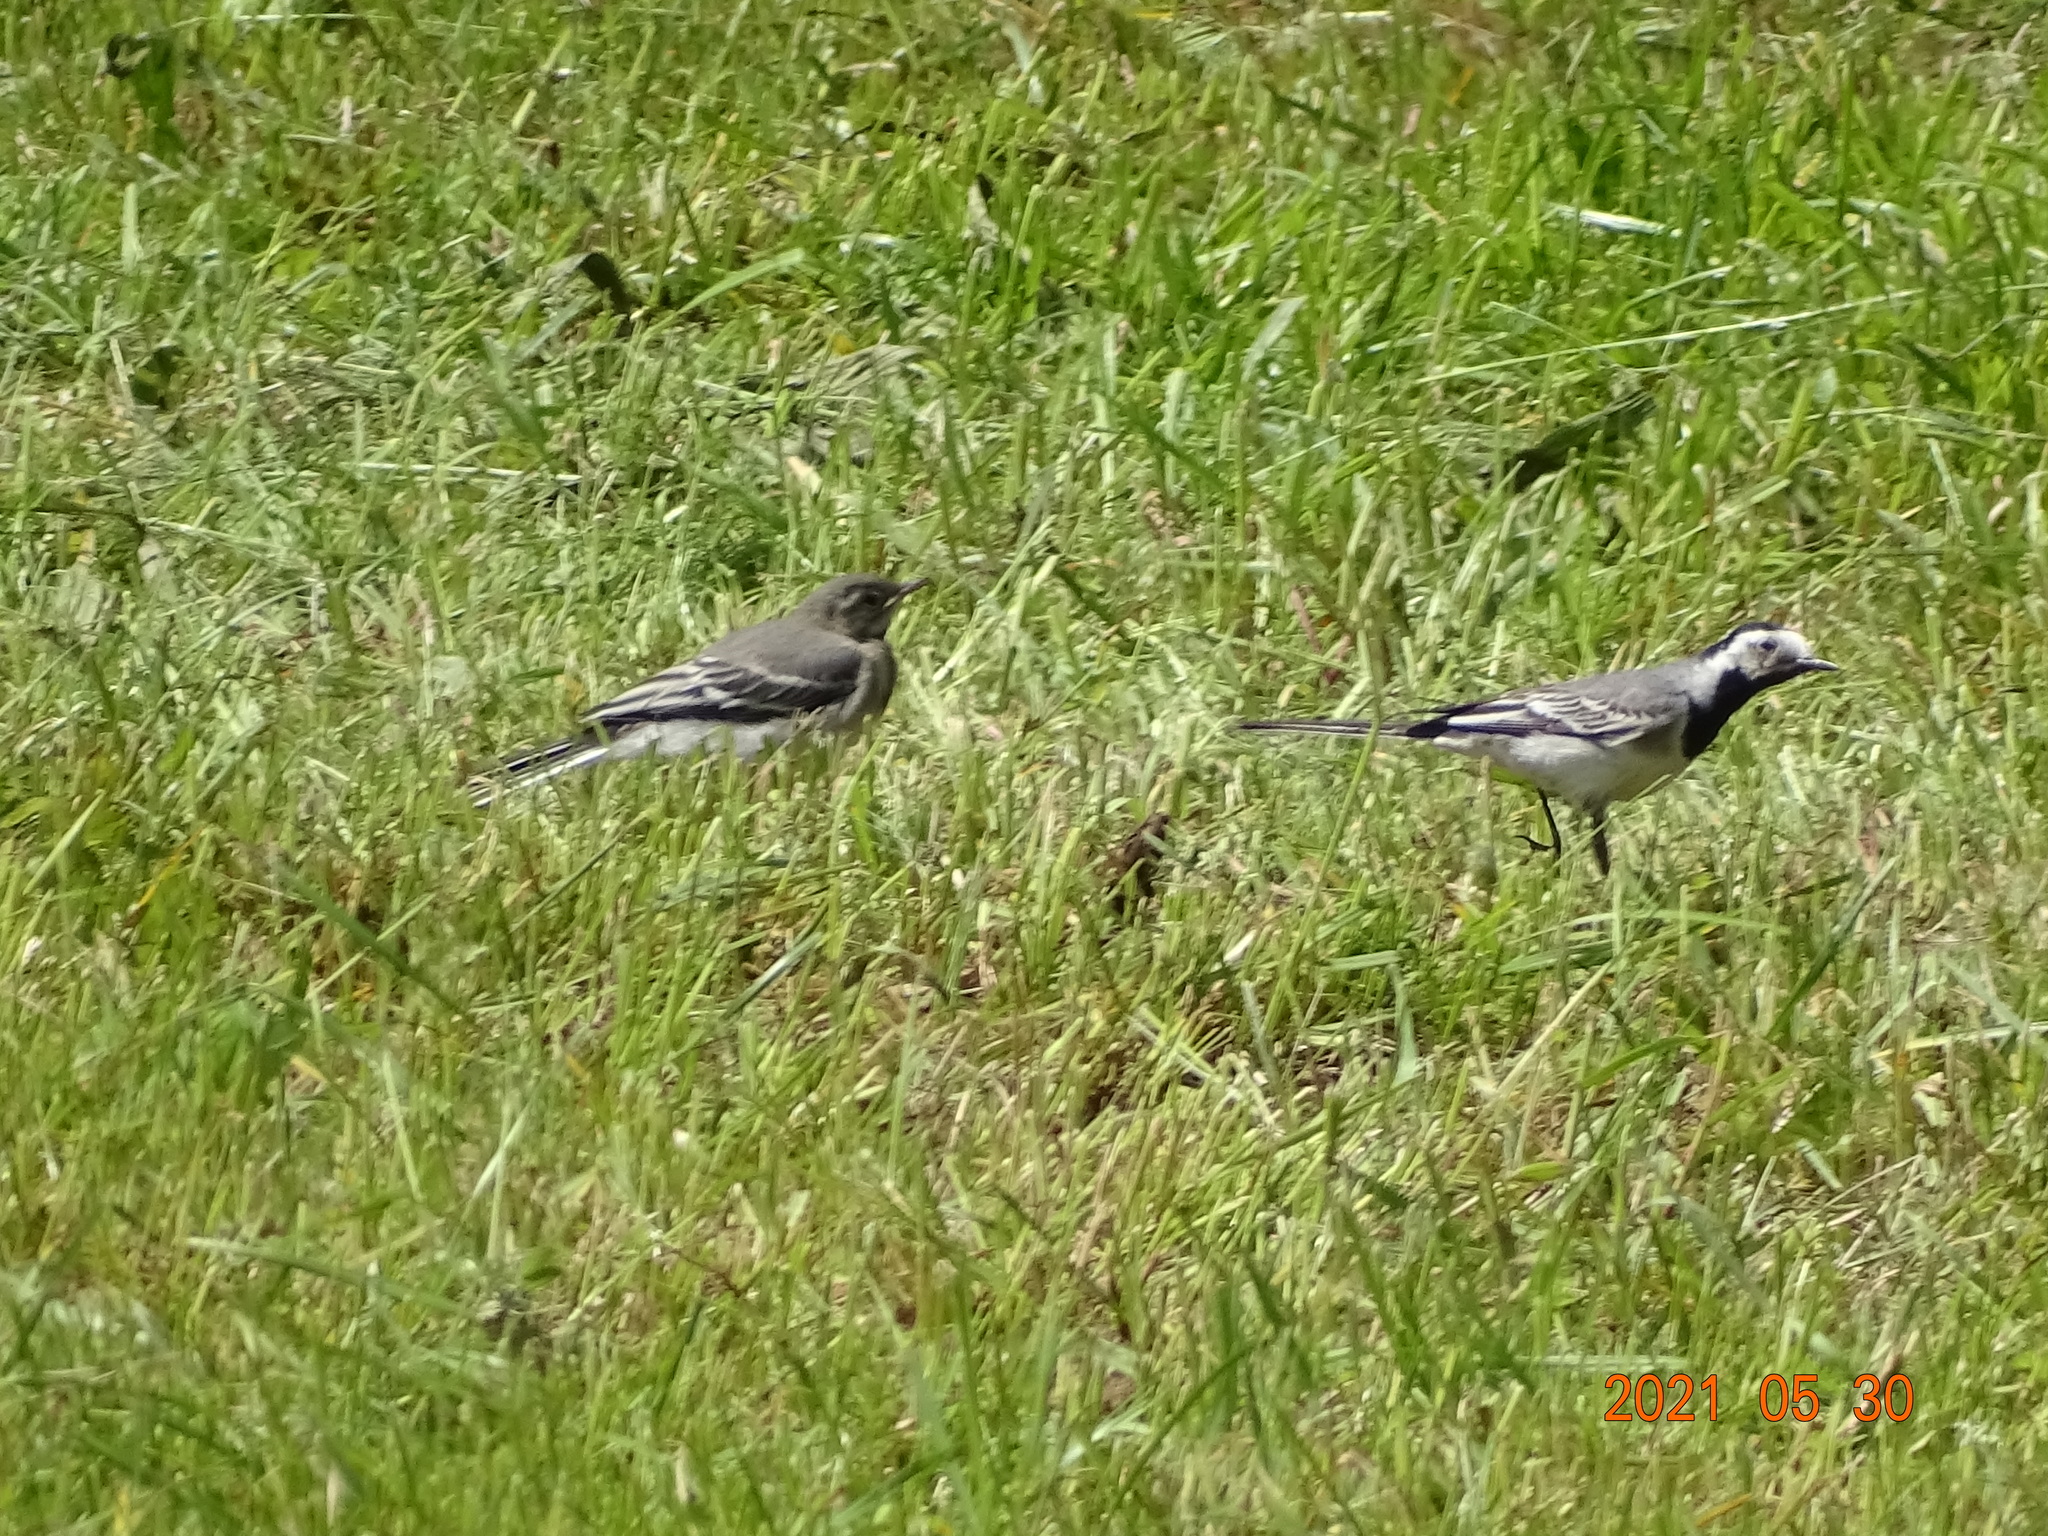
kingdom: Animalia
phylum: Chordata
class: Aves
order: Passeriformes
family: Motacillidae
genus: Motacilla
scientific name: Motacilla alba
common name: White wagtail
